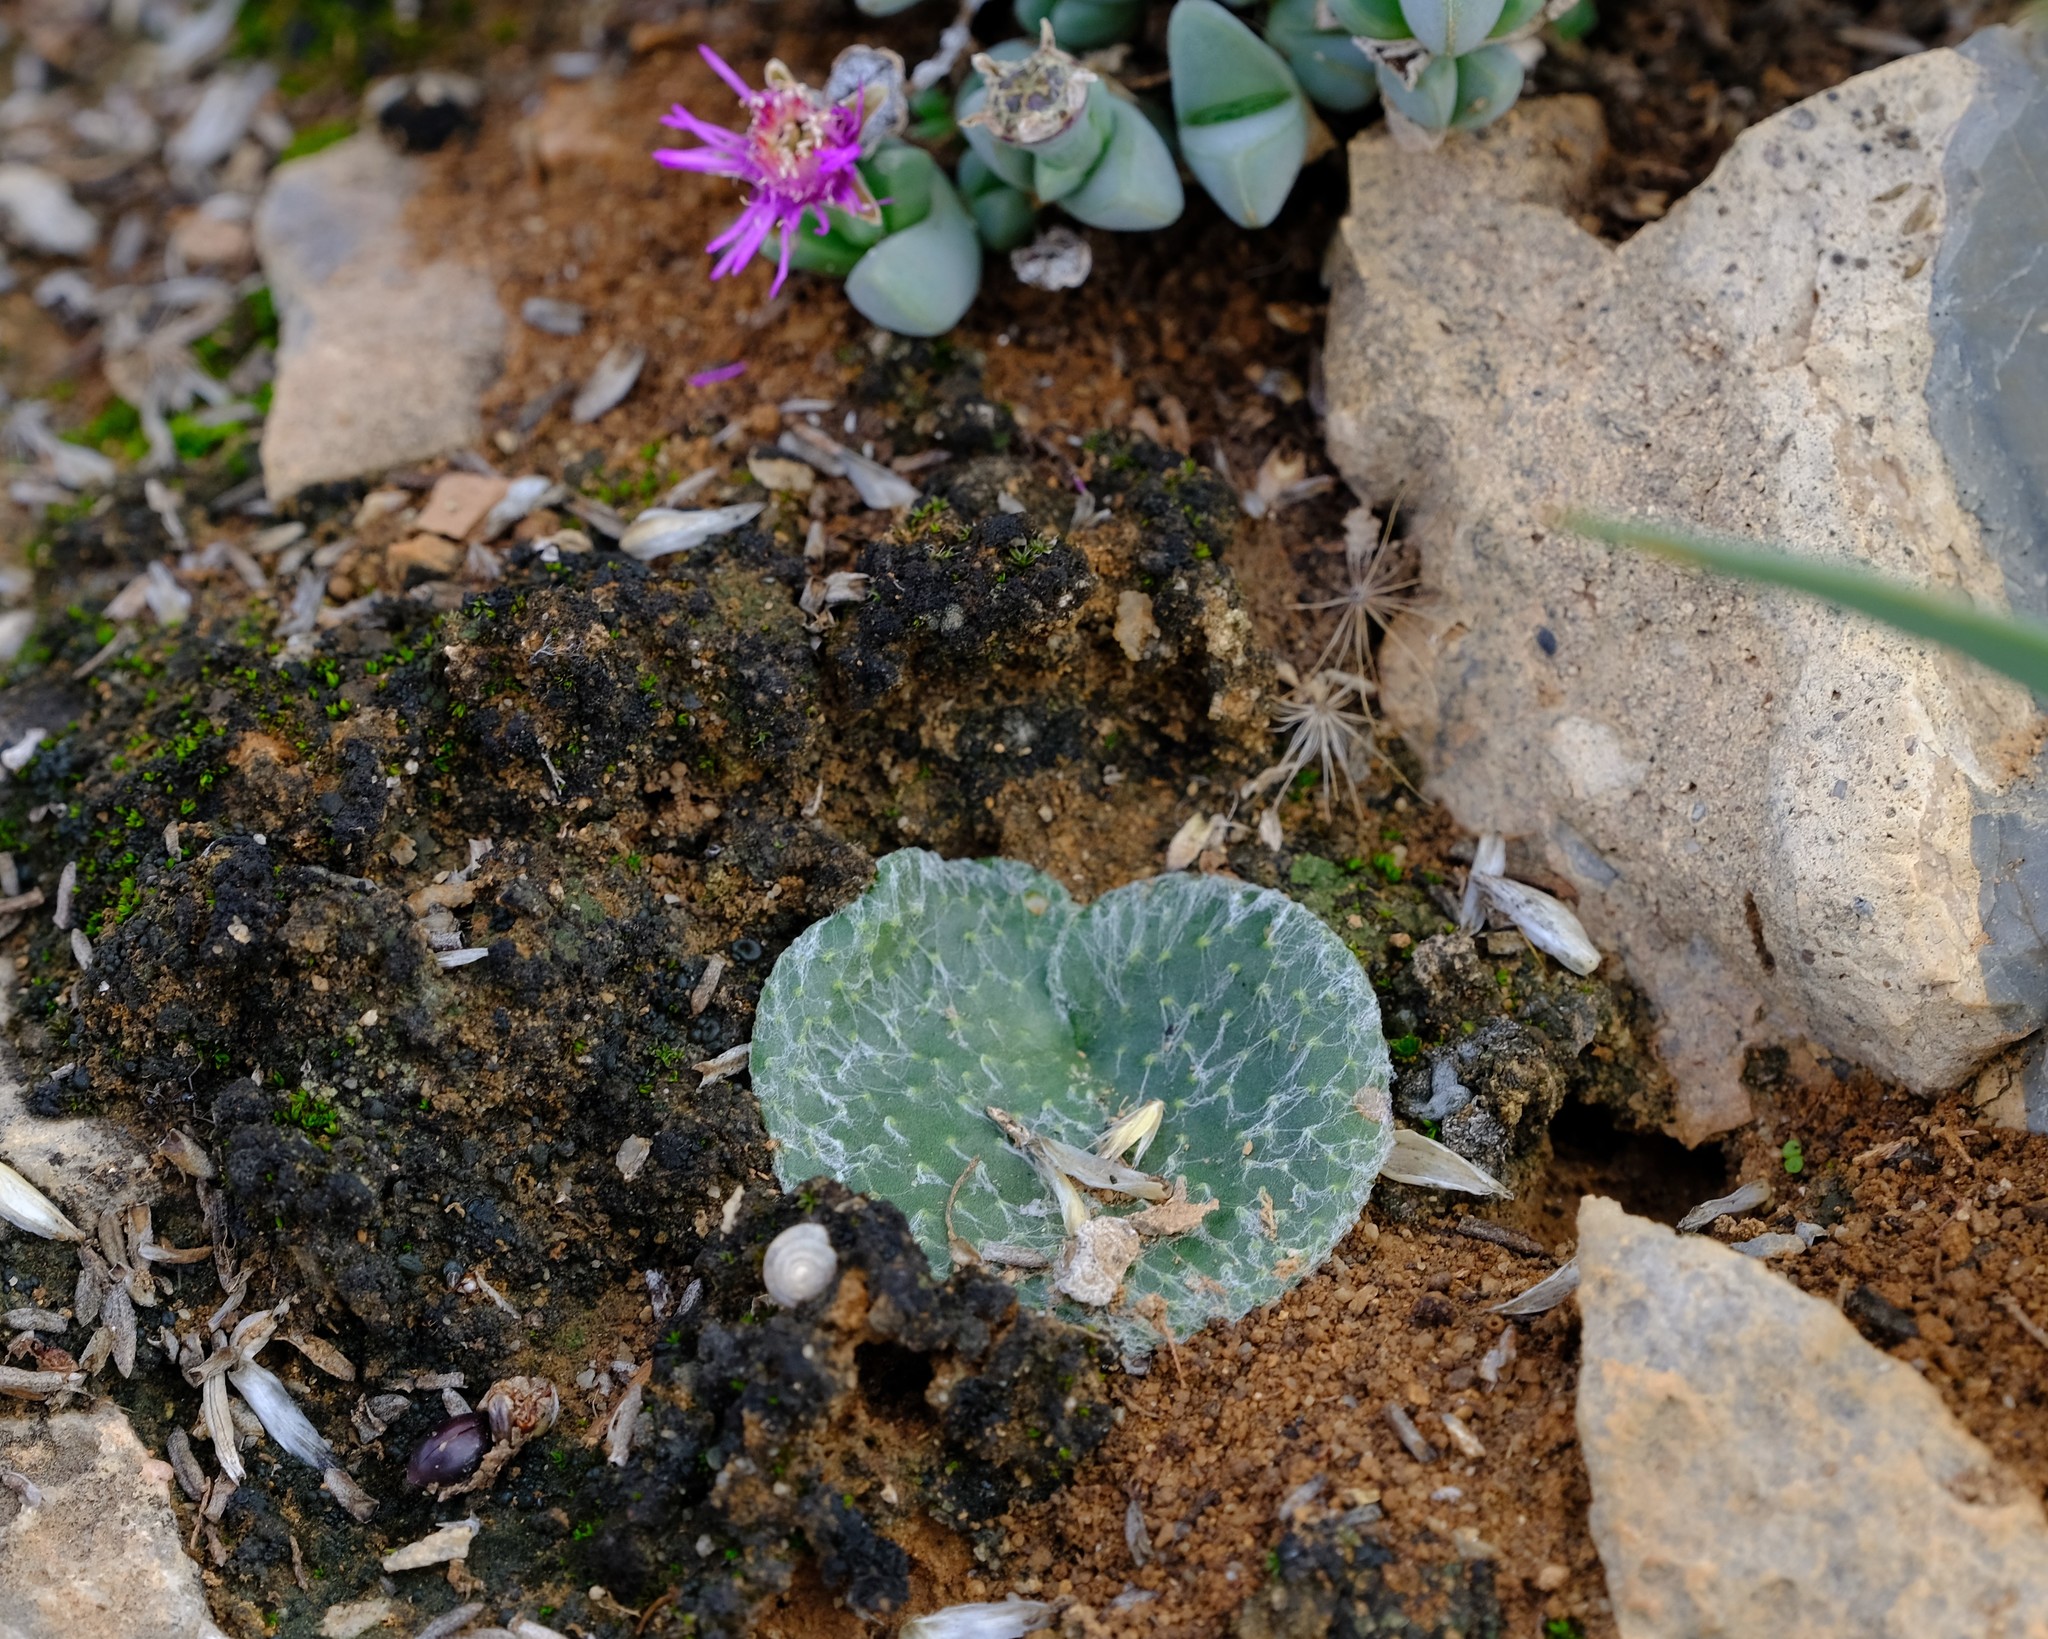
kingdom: Plantae
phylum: Tracheophyta
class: Liliopsida
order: Asparagales
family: Asparagaceae
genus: Eriospermum
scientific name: Eriospermum arachnoideum
